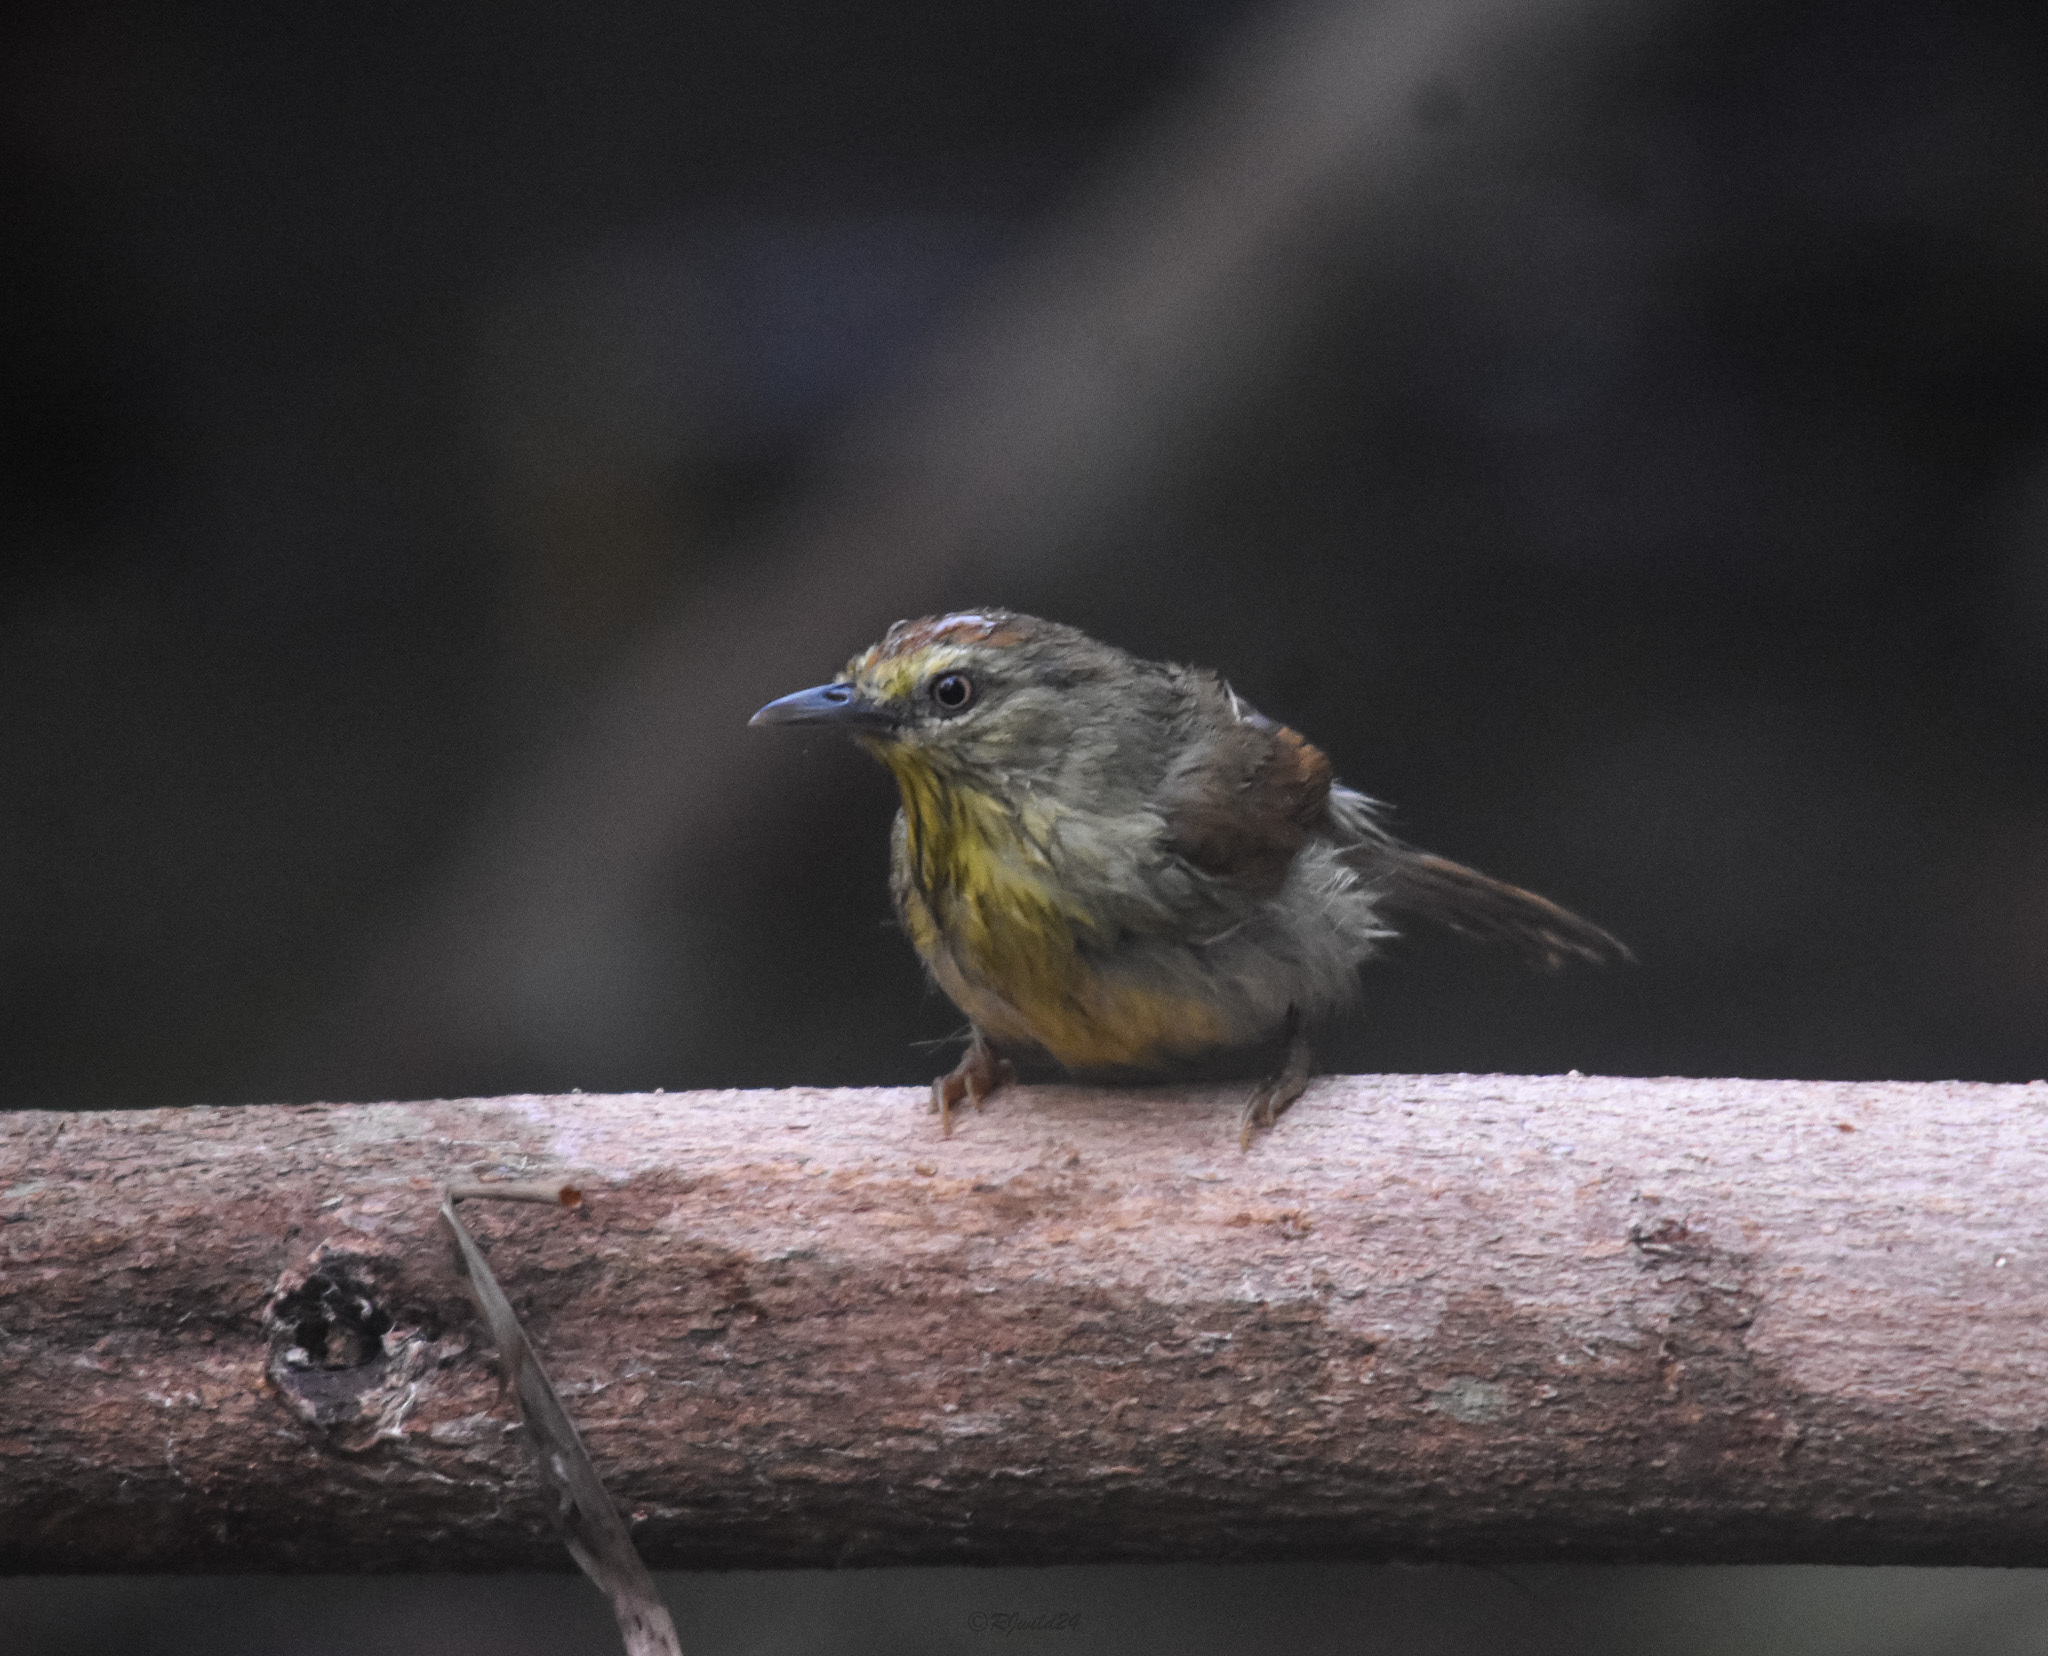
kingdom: Animalia
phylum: Chordata
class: Aves
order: Passeriformes
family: Timaliidae
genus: Macronus
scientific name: Macronus gularis
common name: Striped tit-babbler
